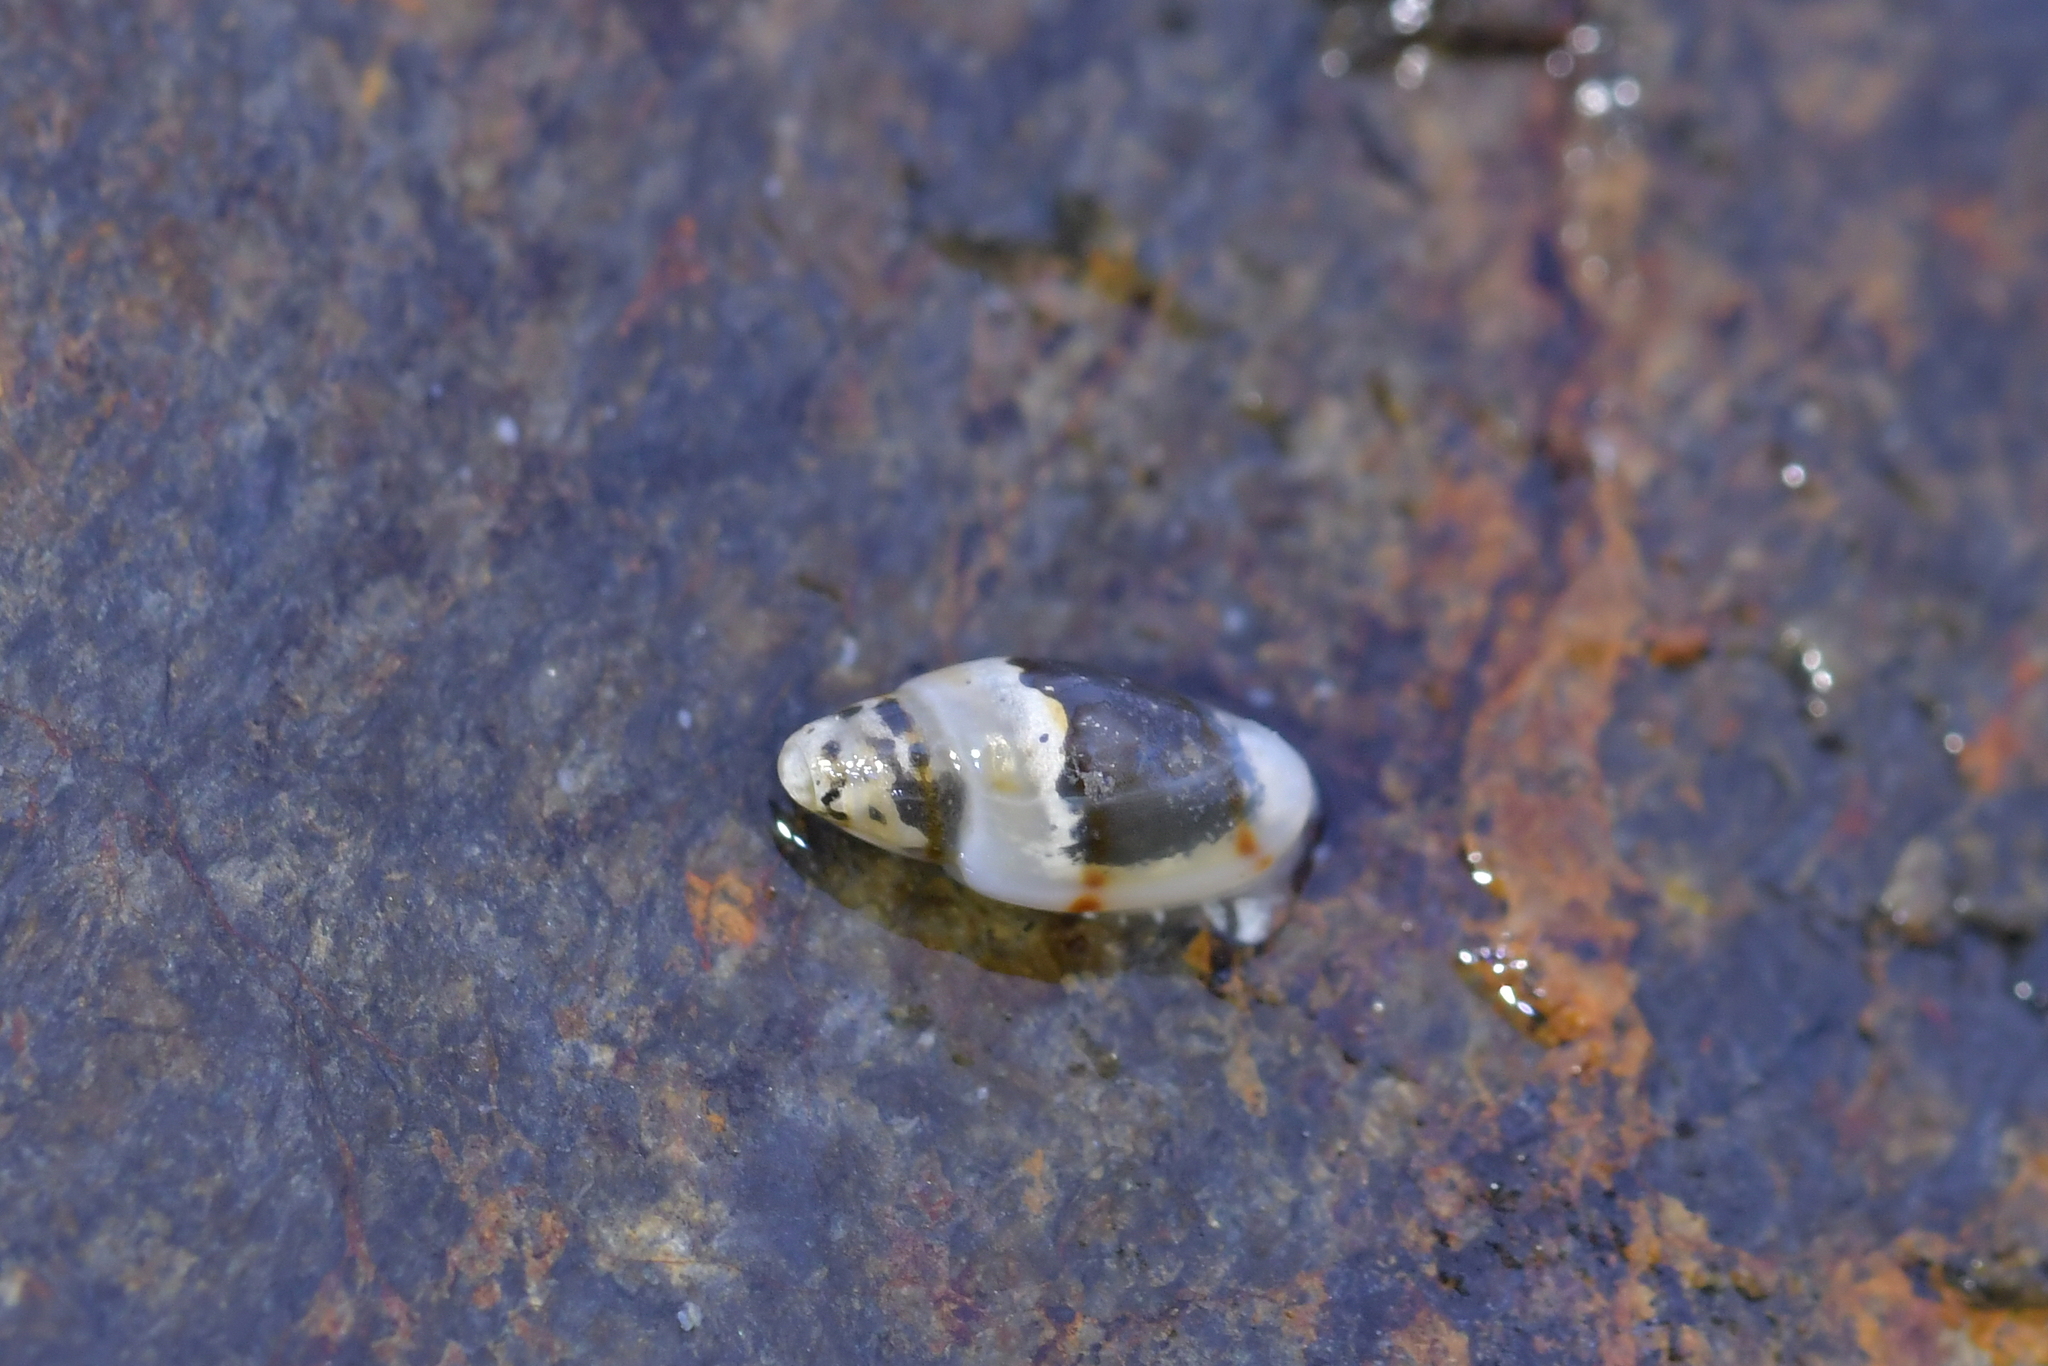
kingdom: Animalia
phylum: Mollusca
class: Gastropoda
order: Neogastropoda
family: Marginellidae
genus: Dentimargo
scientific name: Dentimargo cairoma
